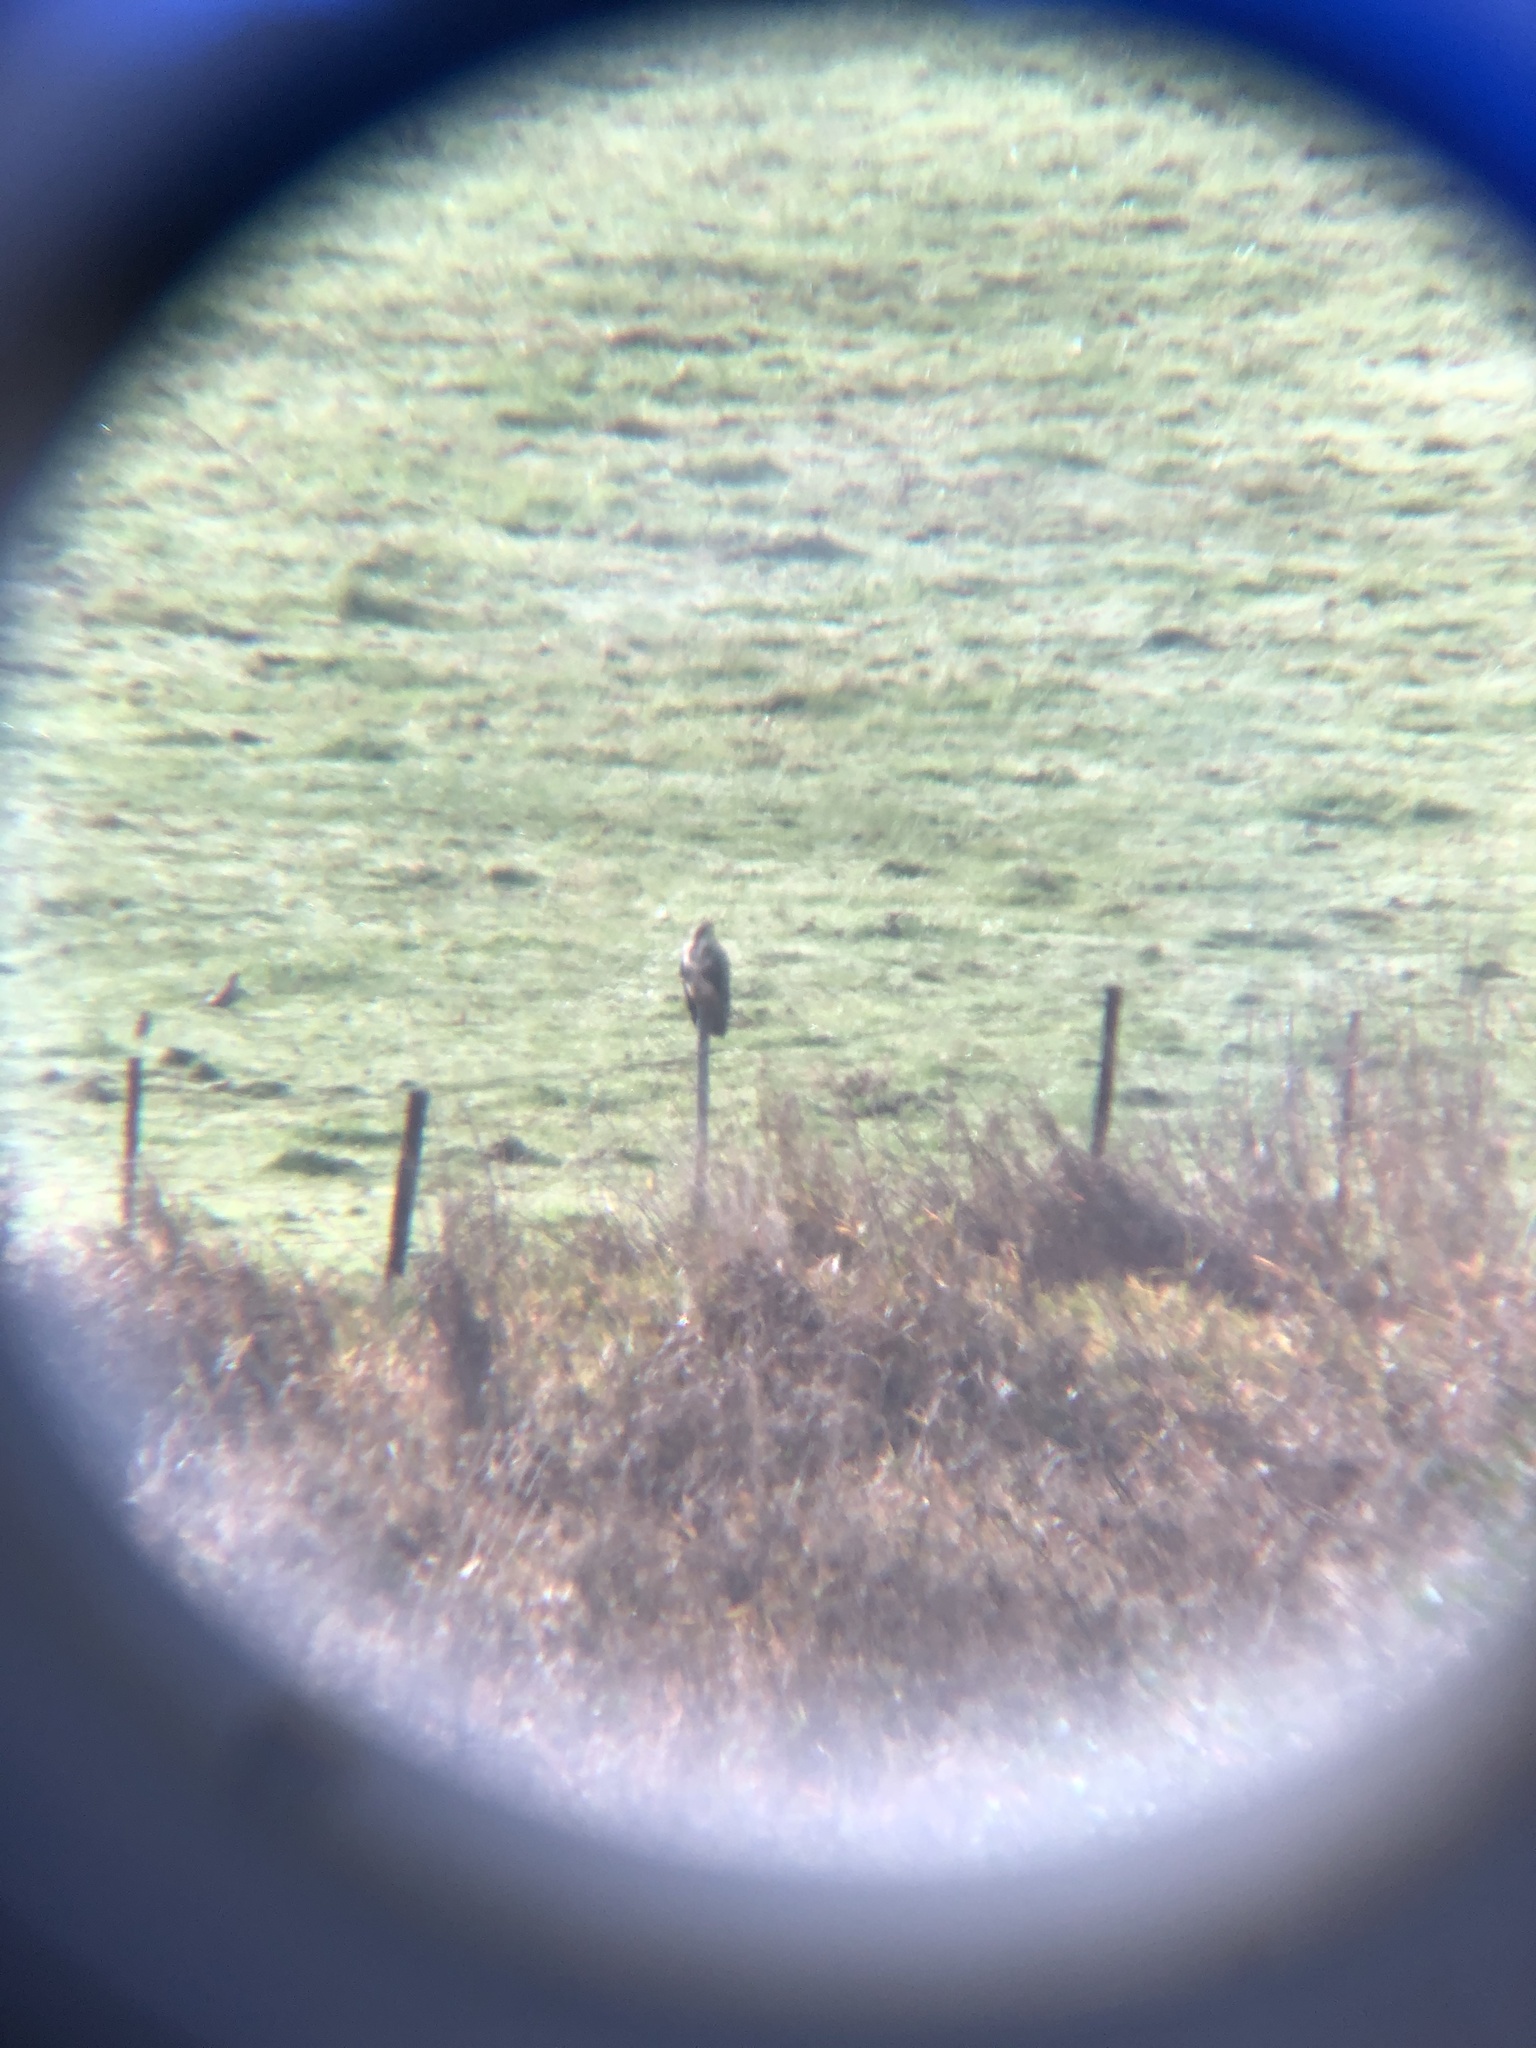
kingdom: Animalia
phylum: Chordata
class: Aves
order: Accipitriformes
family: Accipitridae
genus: Buteo
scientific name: Buteo buteo
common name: Common buzzard
